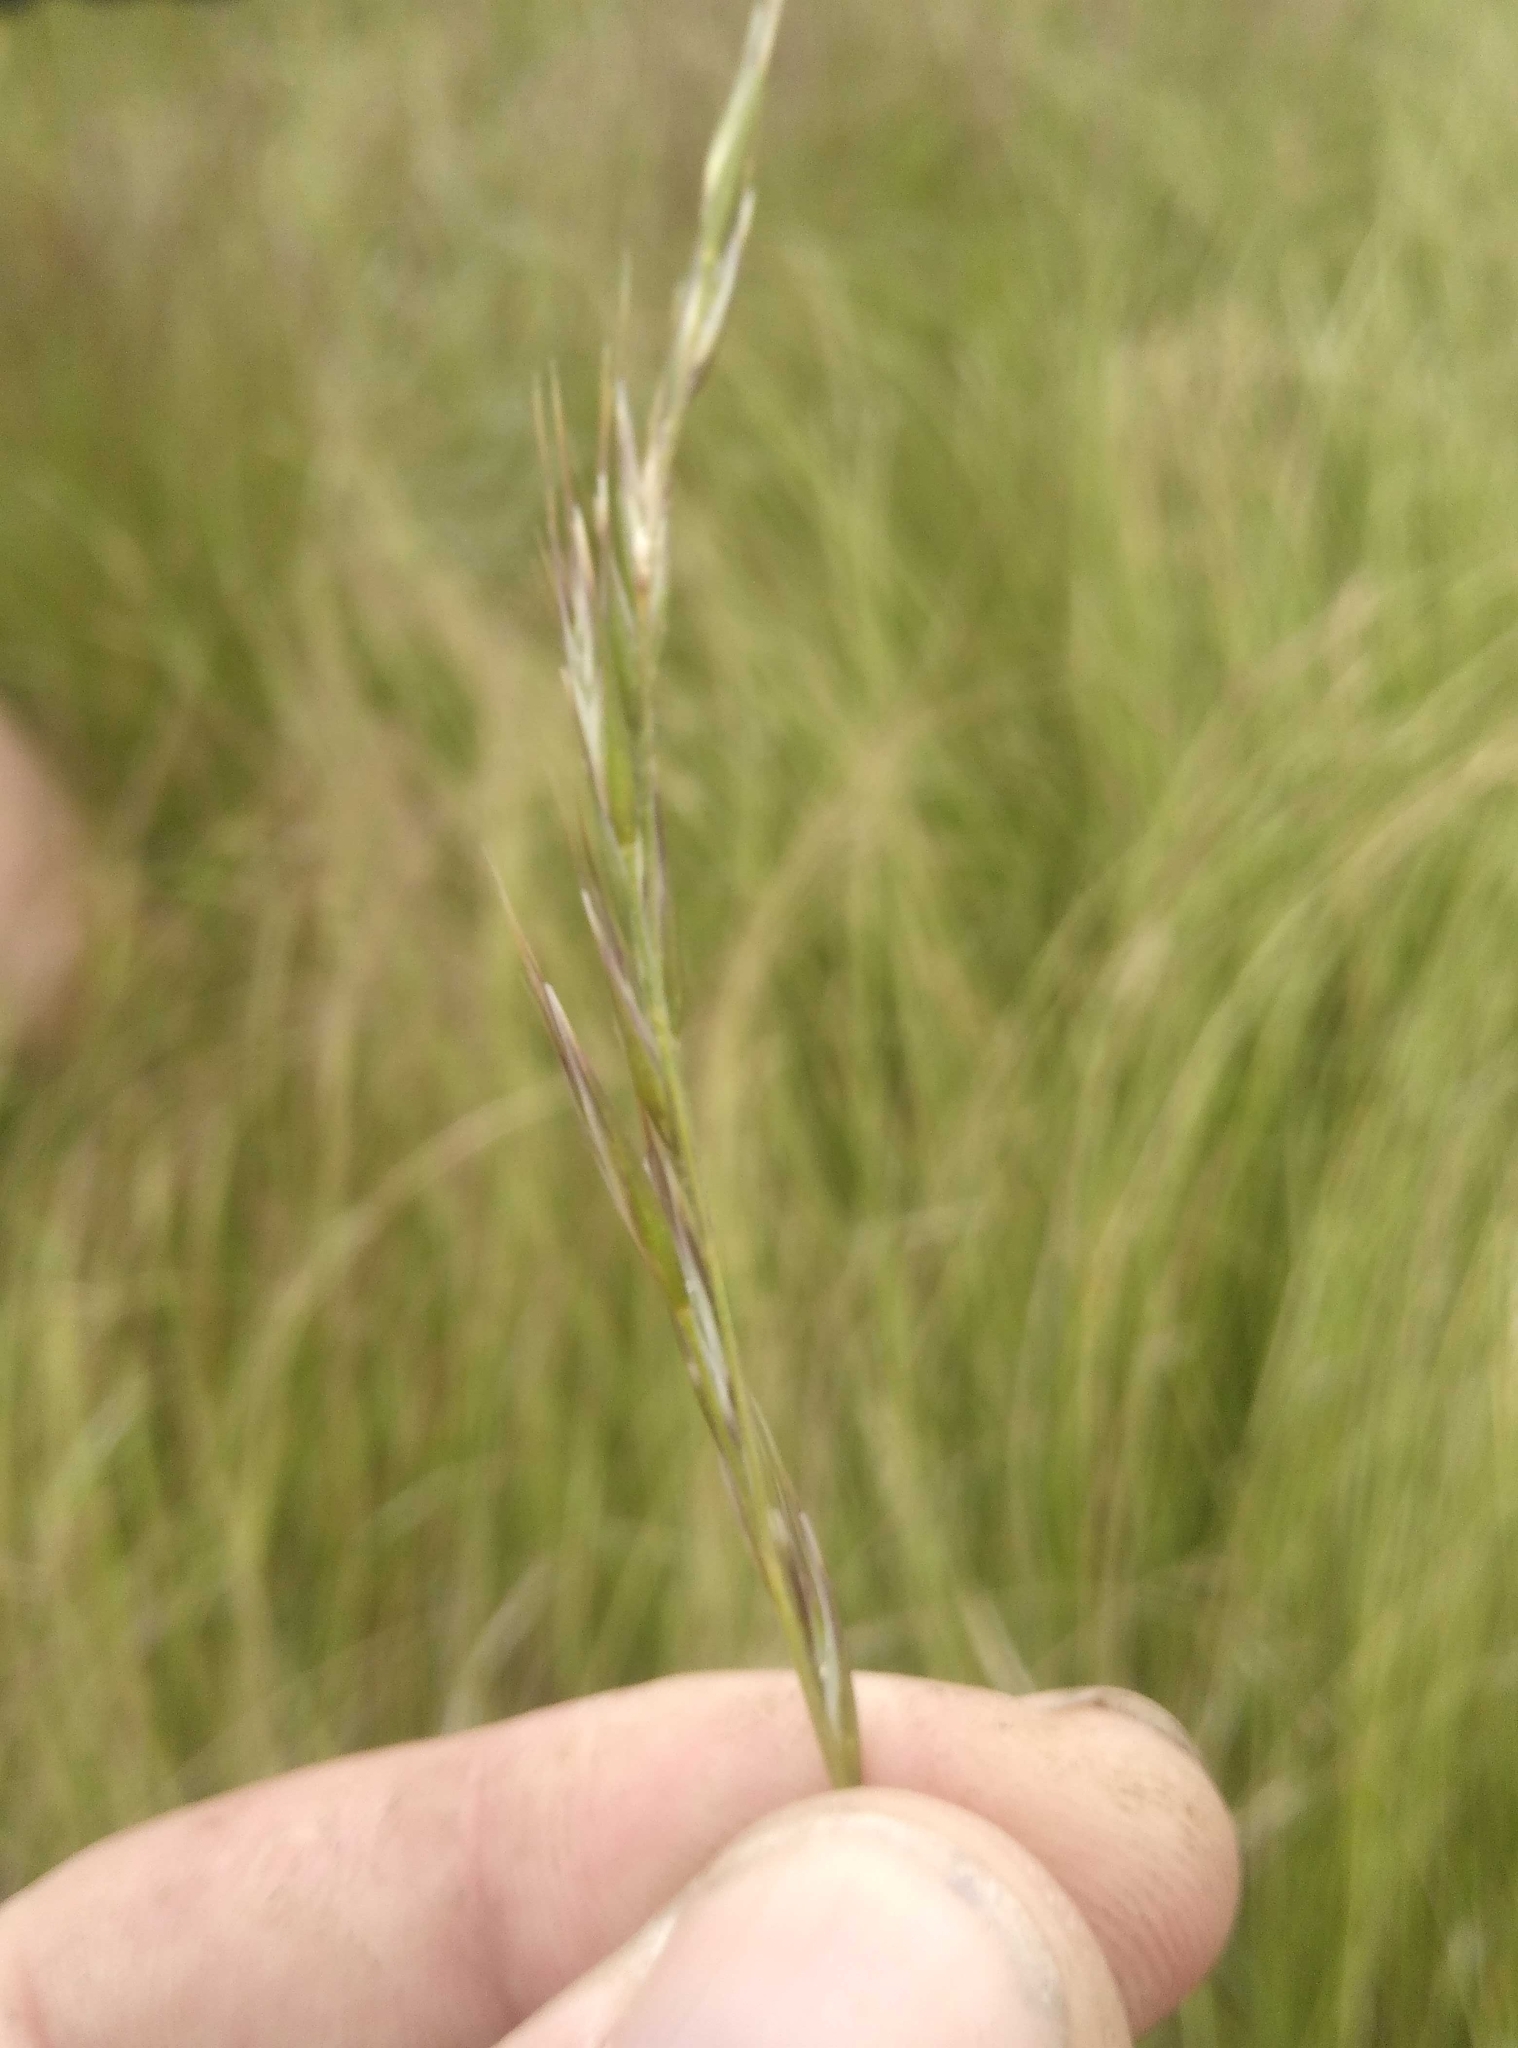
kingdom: Plantae
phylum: Tracheophyta
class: Liliopsida
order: Poales
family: Poaceae
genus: Rytidosperma
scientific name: Rytidosperma merum
